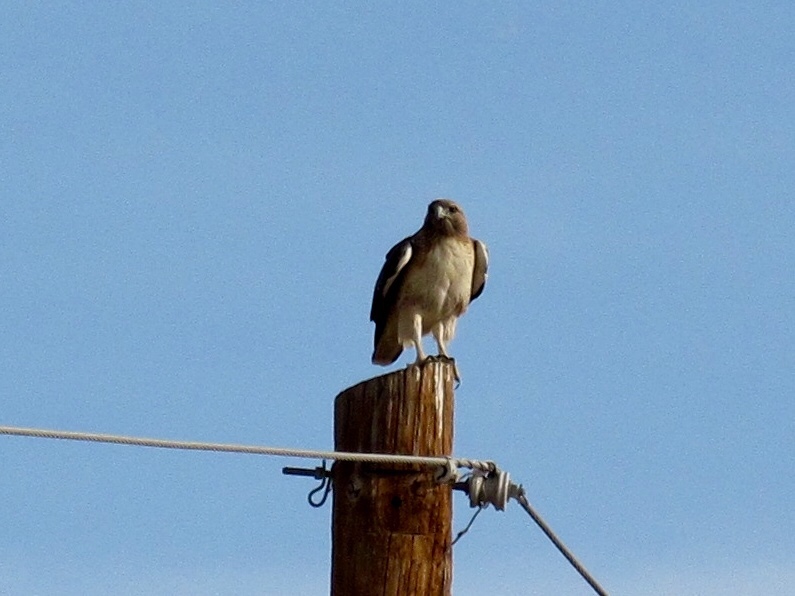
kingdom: Animalia
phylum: Chordata
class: Aves
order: Accipitriformes
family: Accipitridae
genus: Buteo
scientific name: Buteo jamaicensis
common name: Red-tailed hawk
